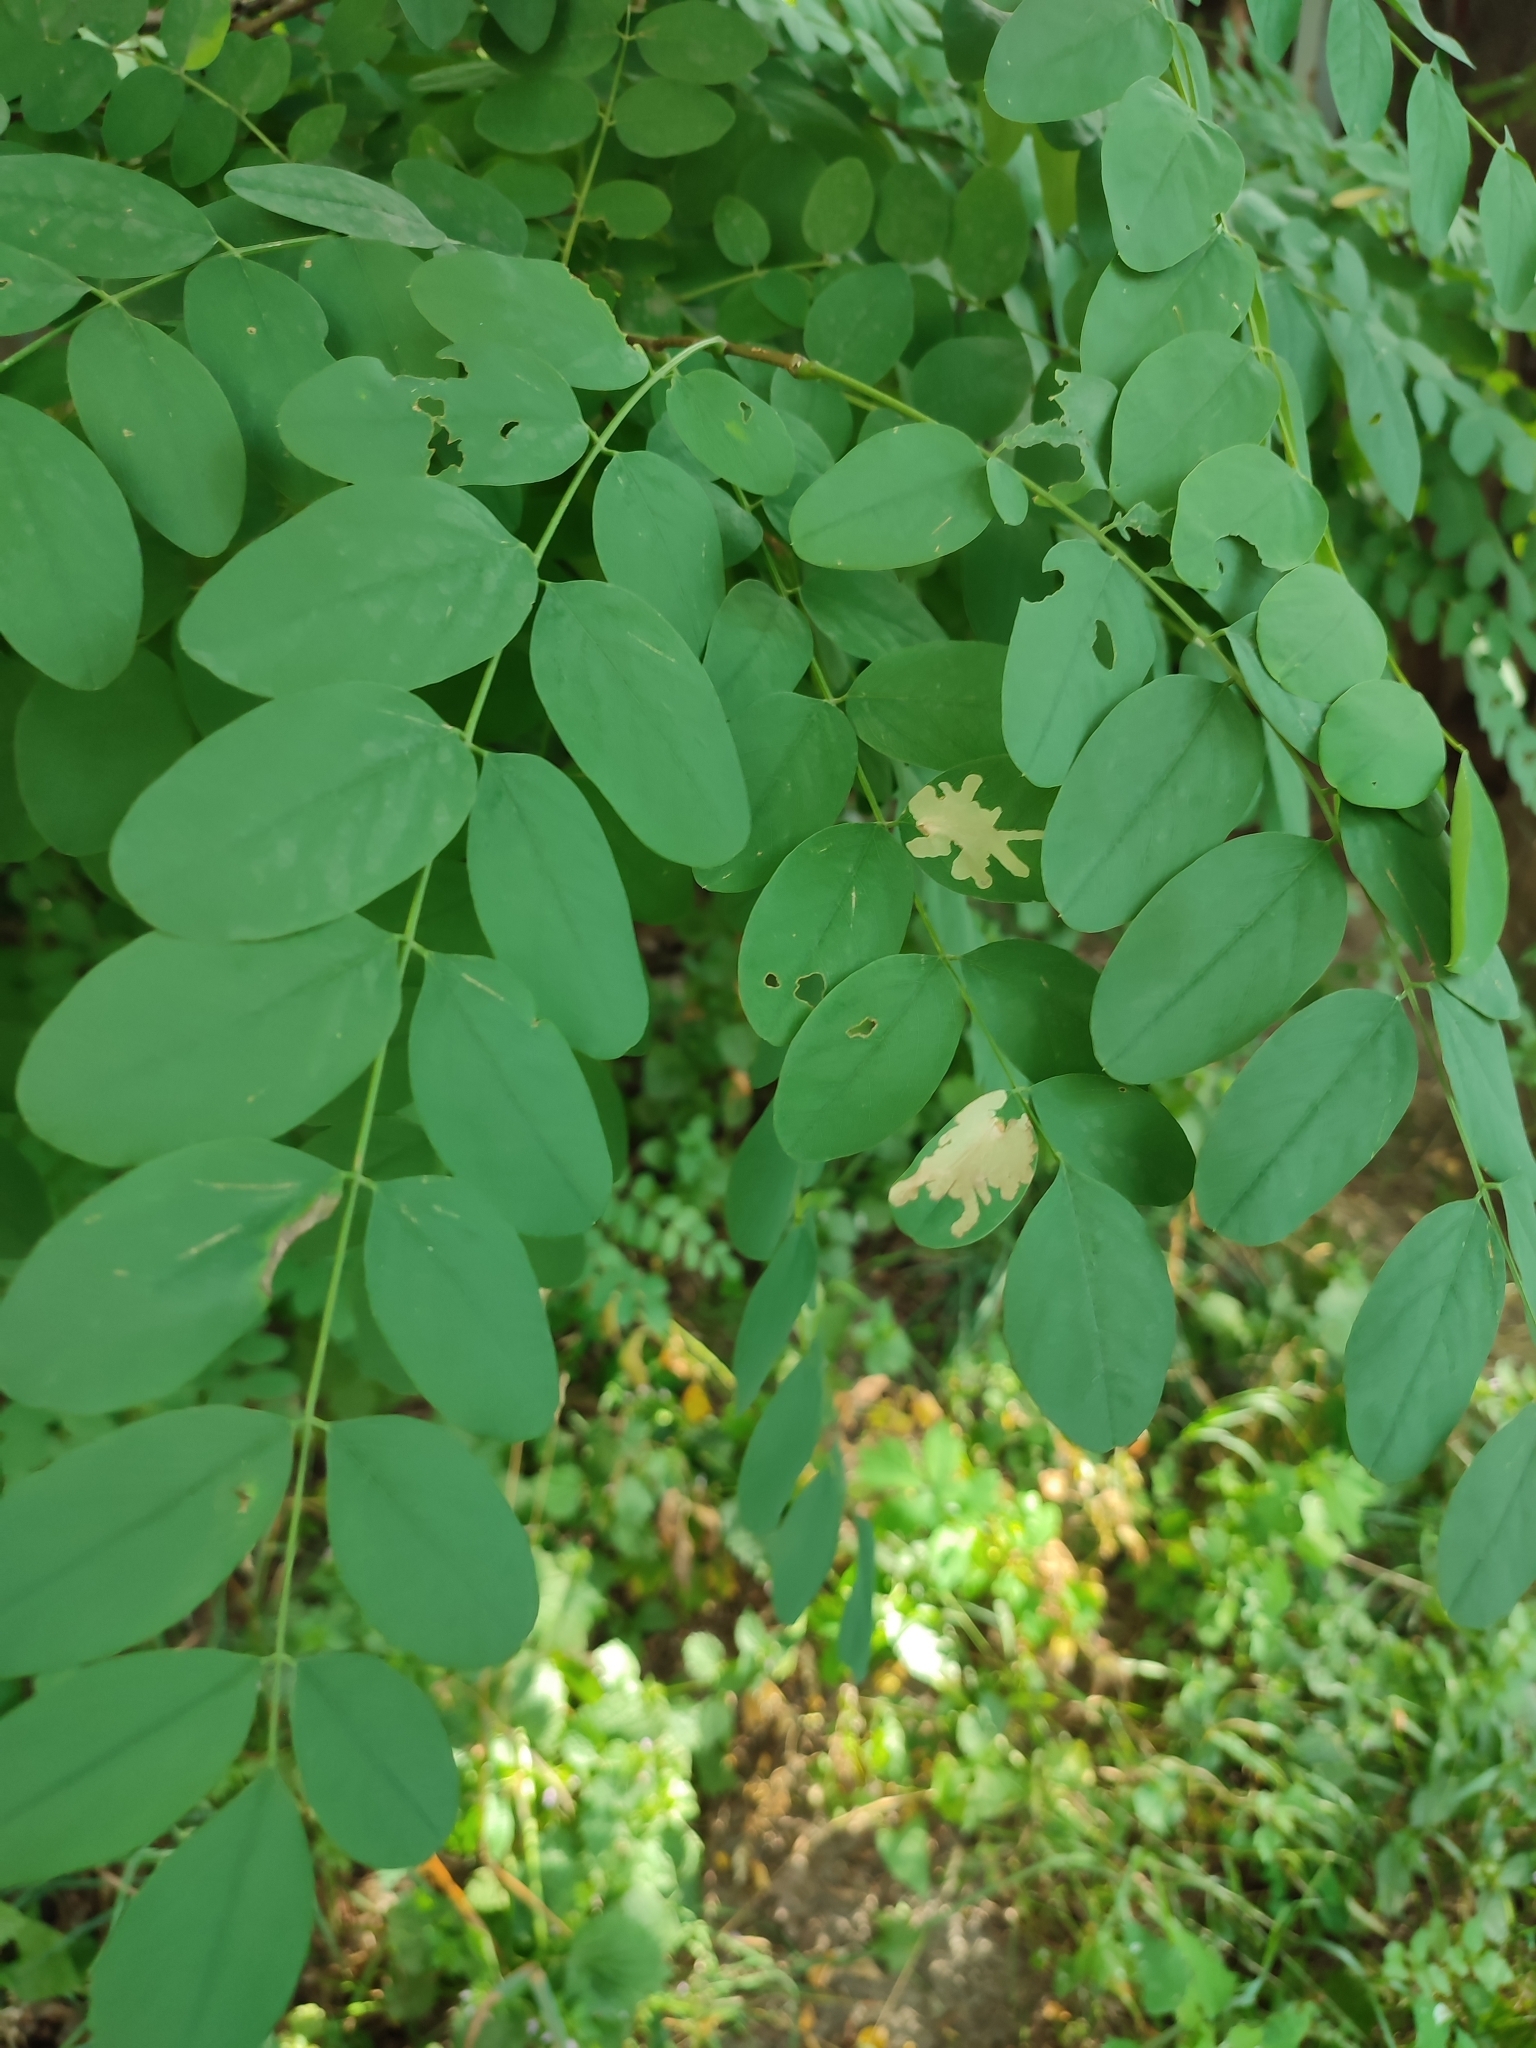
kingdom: Animalia
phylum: Arthropoda
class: Insecta
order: Lepidoptera
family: Gracillariidae
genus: Parectopa
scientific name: Parectopa robiniella
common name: Locust digitate leafminer
